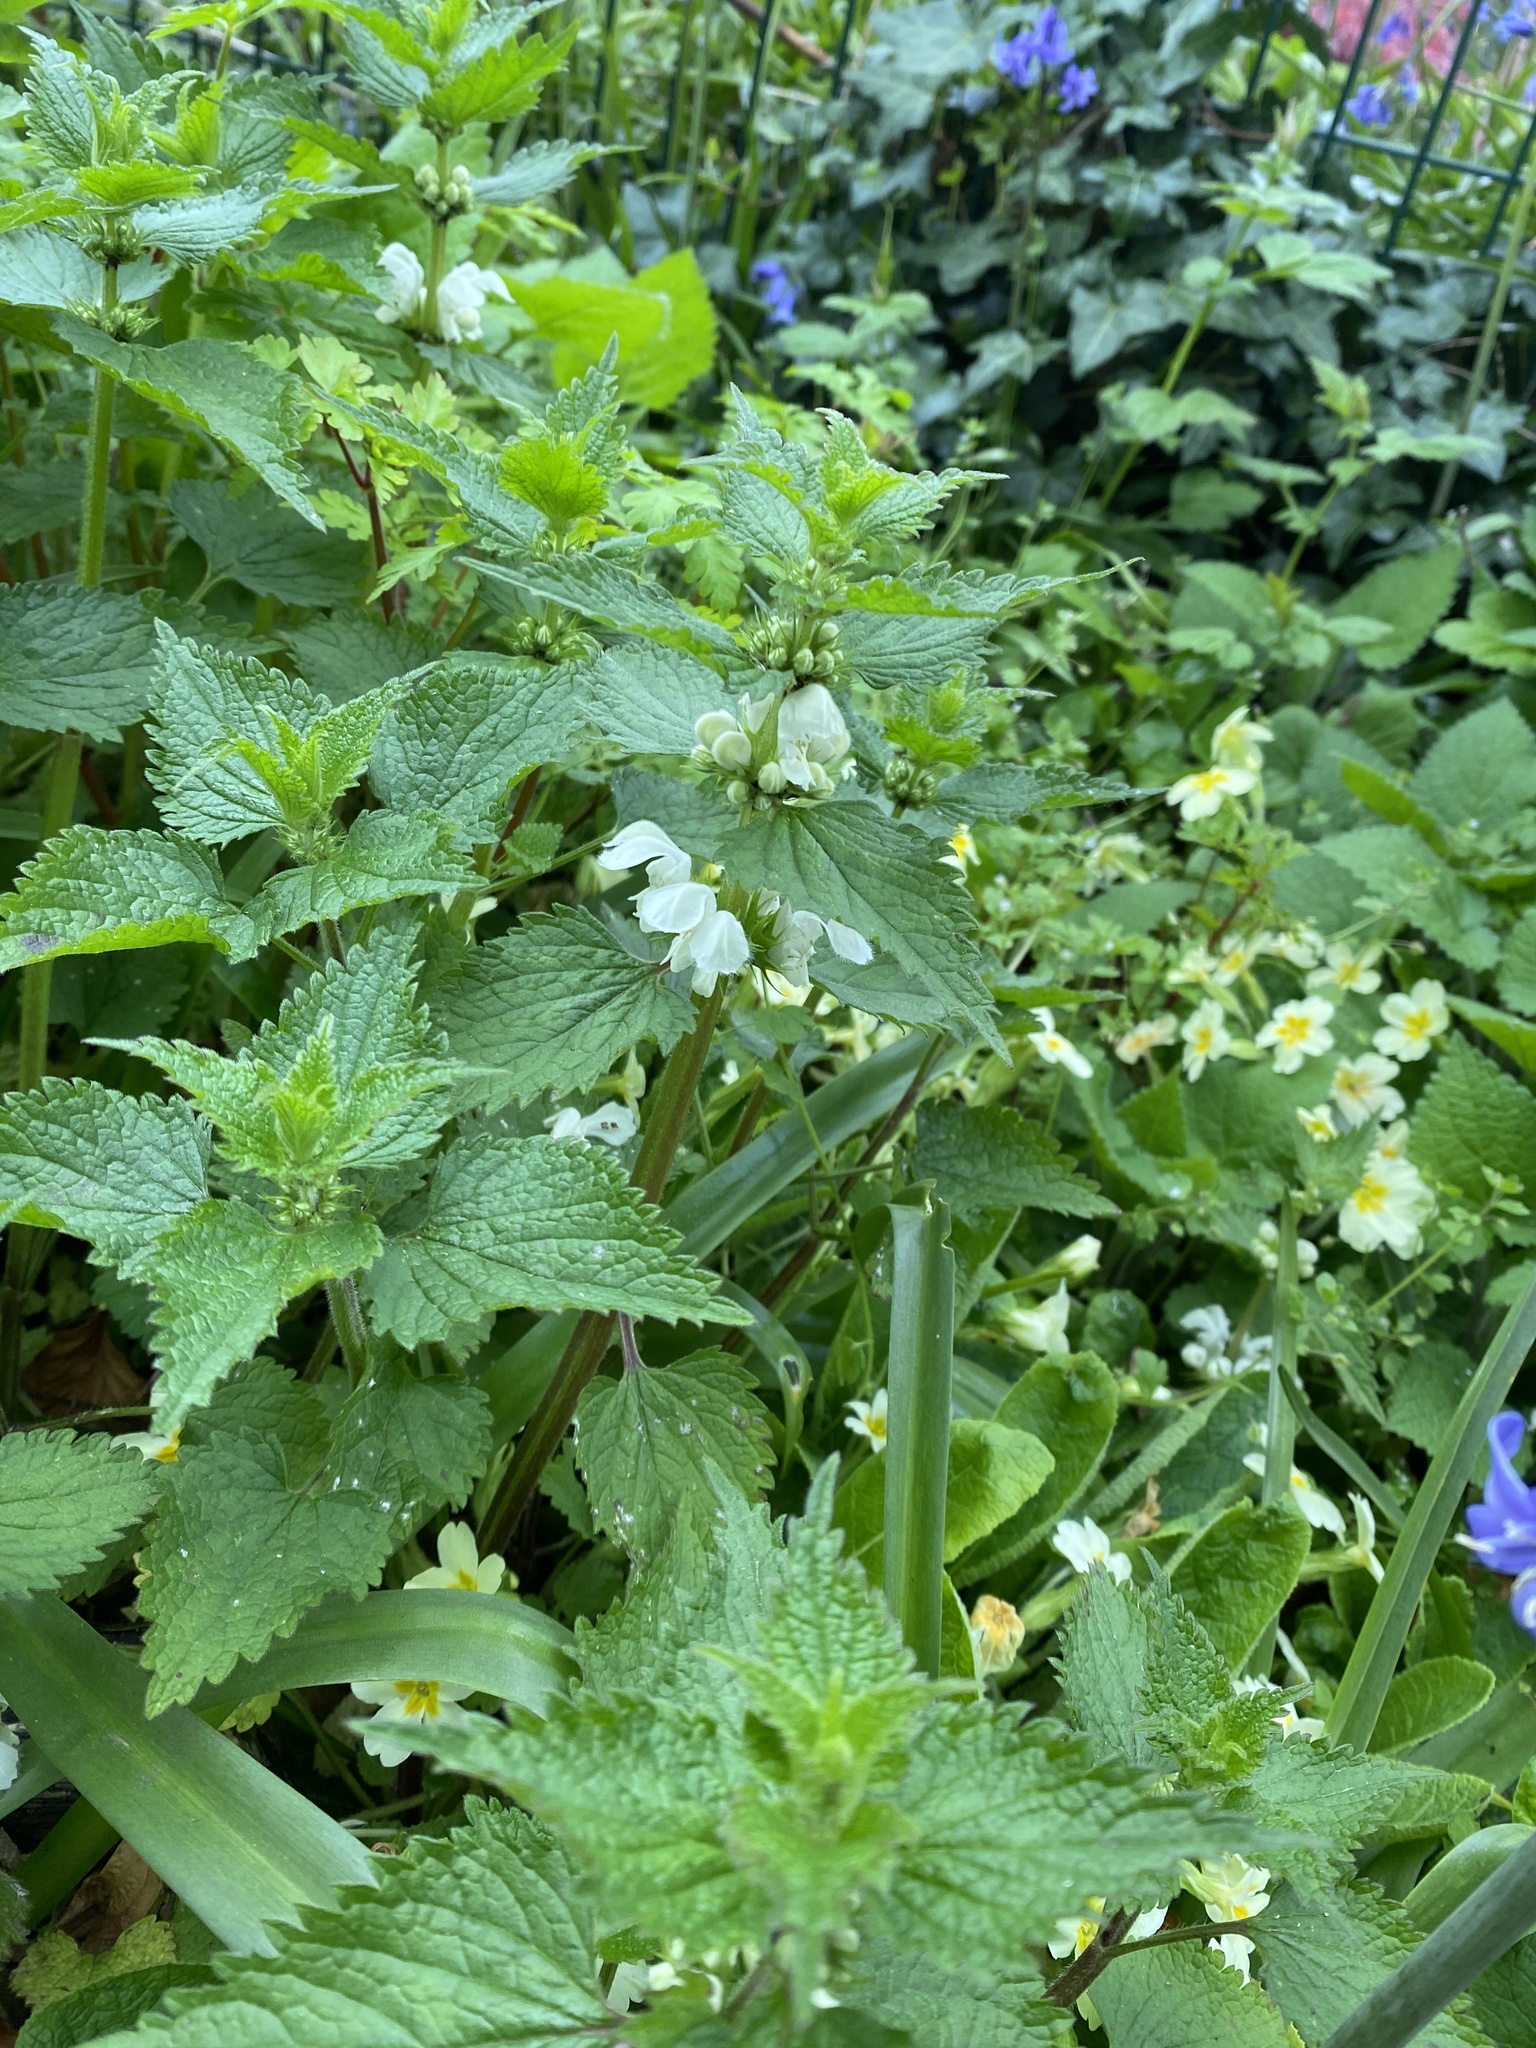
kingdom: Plantae
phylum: Tracheophyta
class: Magnoliopsida
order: Lamiales
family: Lamiaceae
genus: Lamium
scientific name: Lamium album
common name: White dead-nettle
